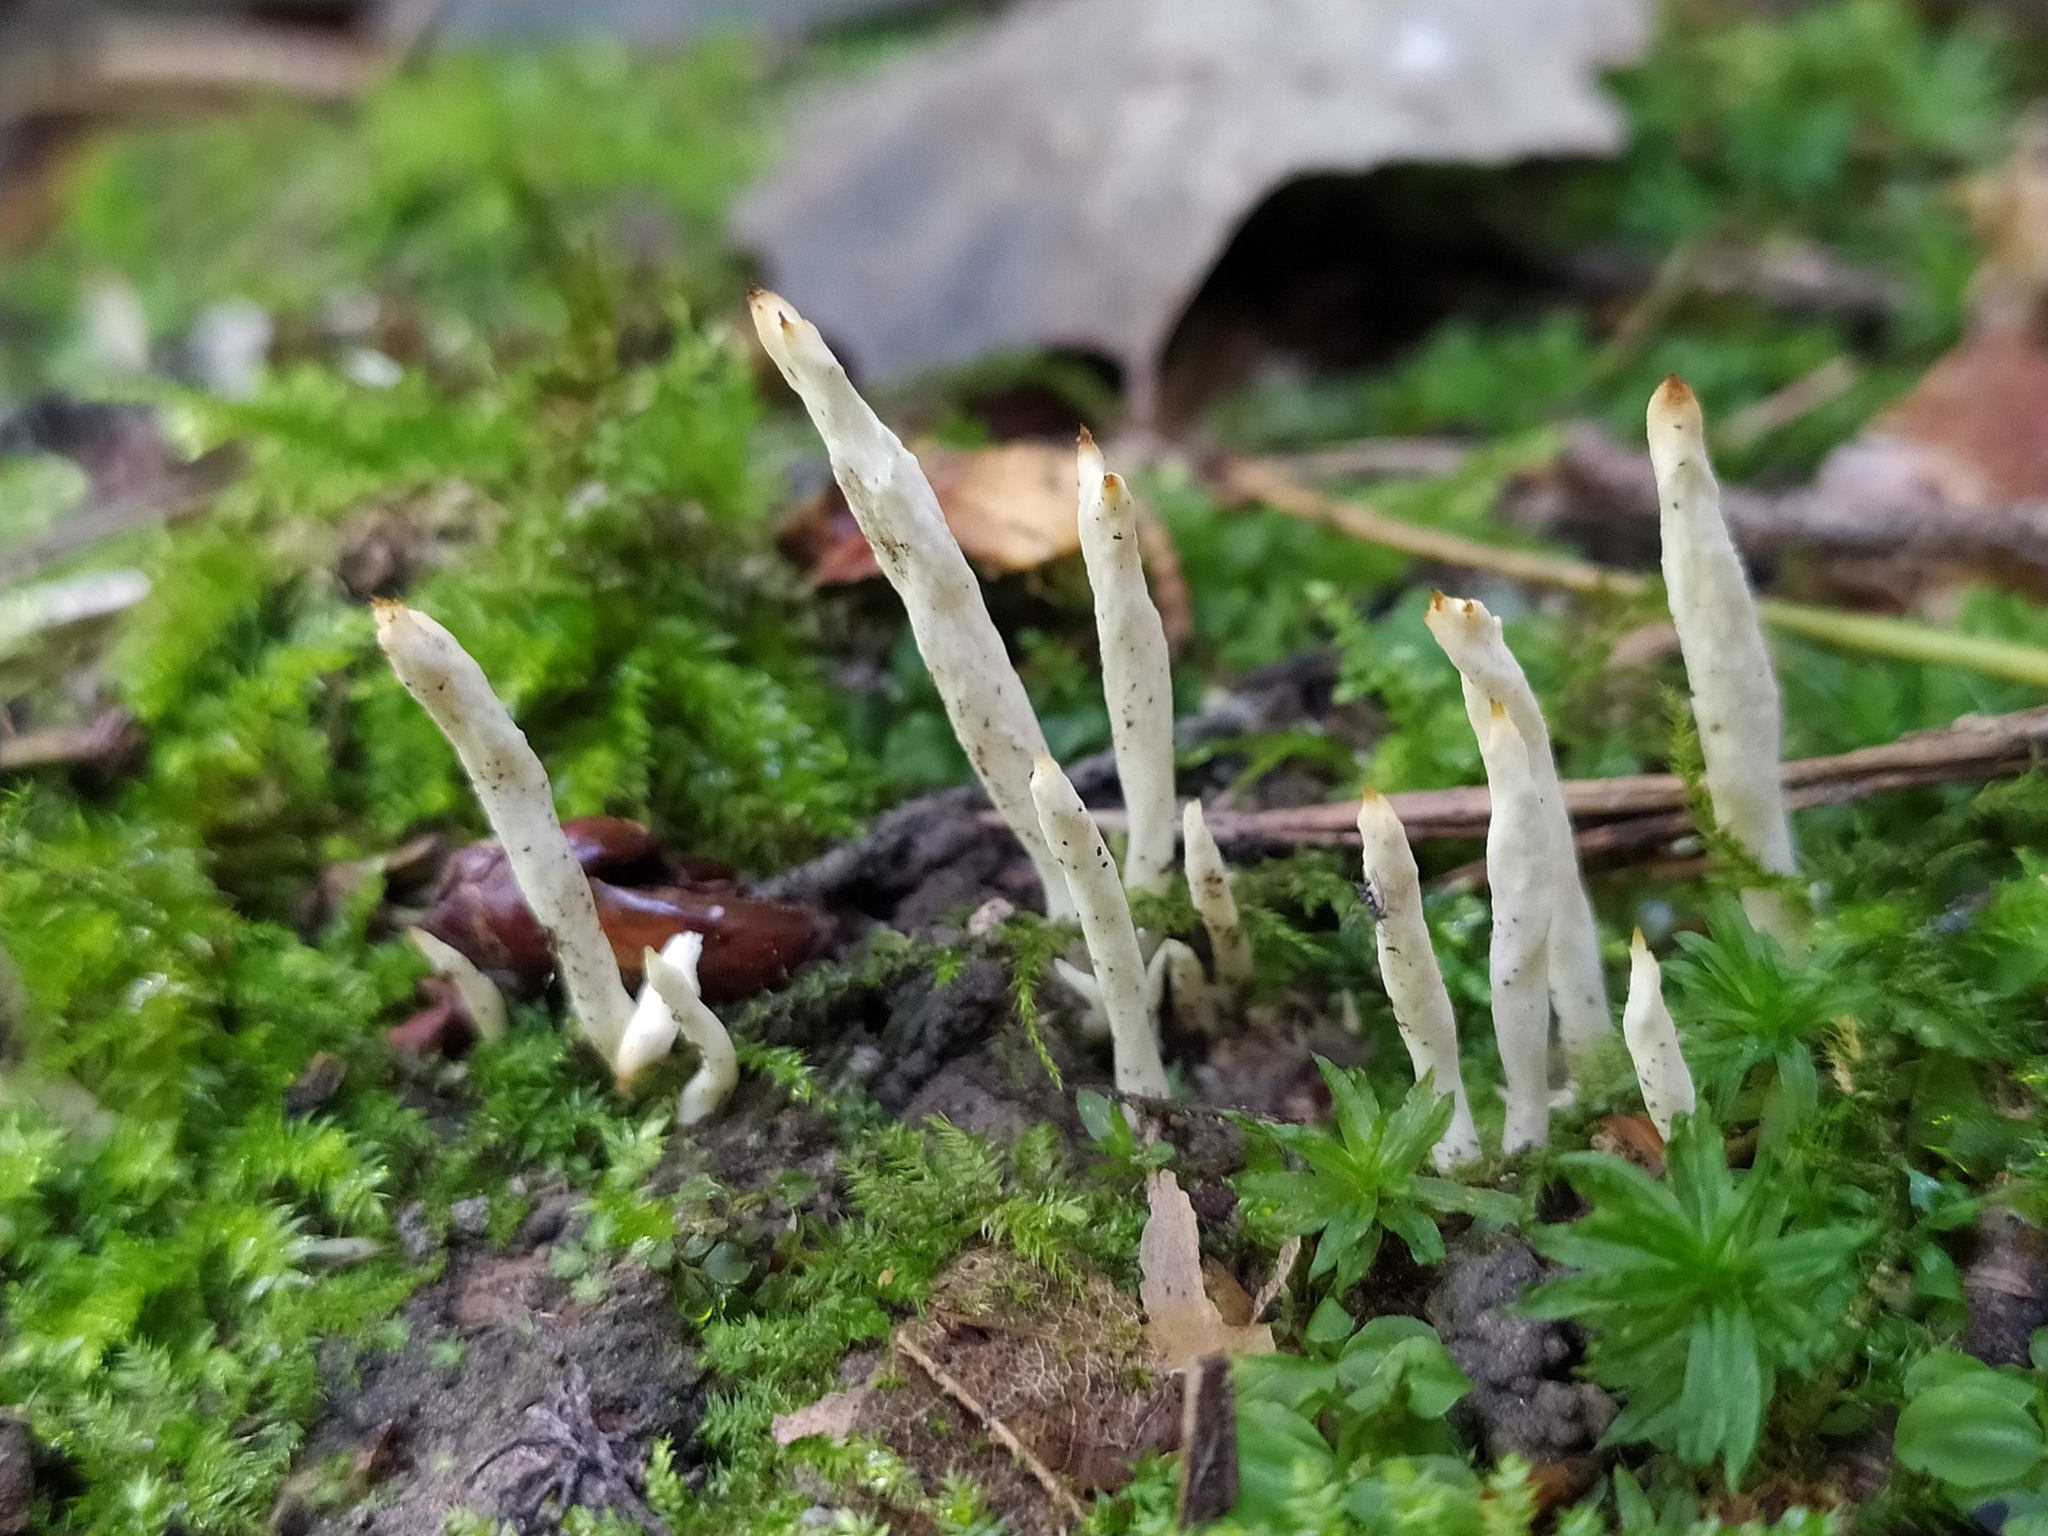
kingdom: Fungi
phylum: Ascomycota
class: Sordariomycetes
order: Xylariales
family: Xylariaceae
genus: Xylaria
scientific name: Xylaria hypoxylon
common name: Candle-snuff fungus
